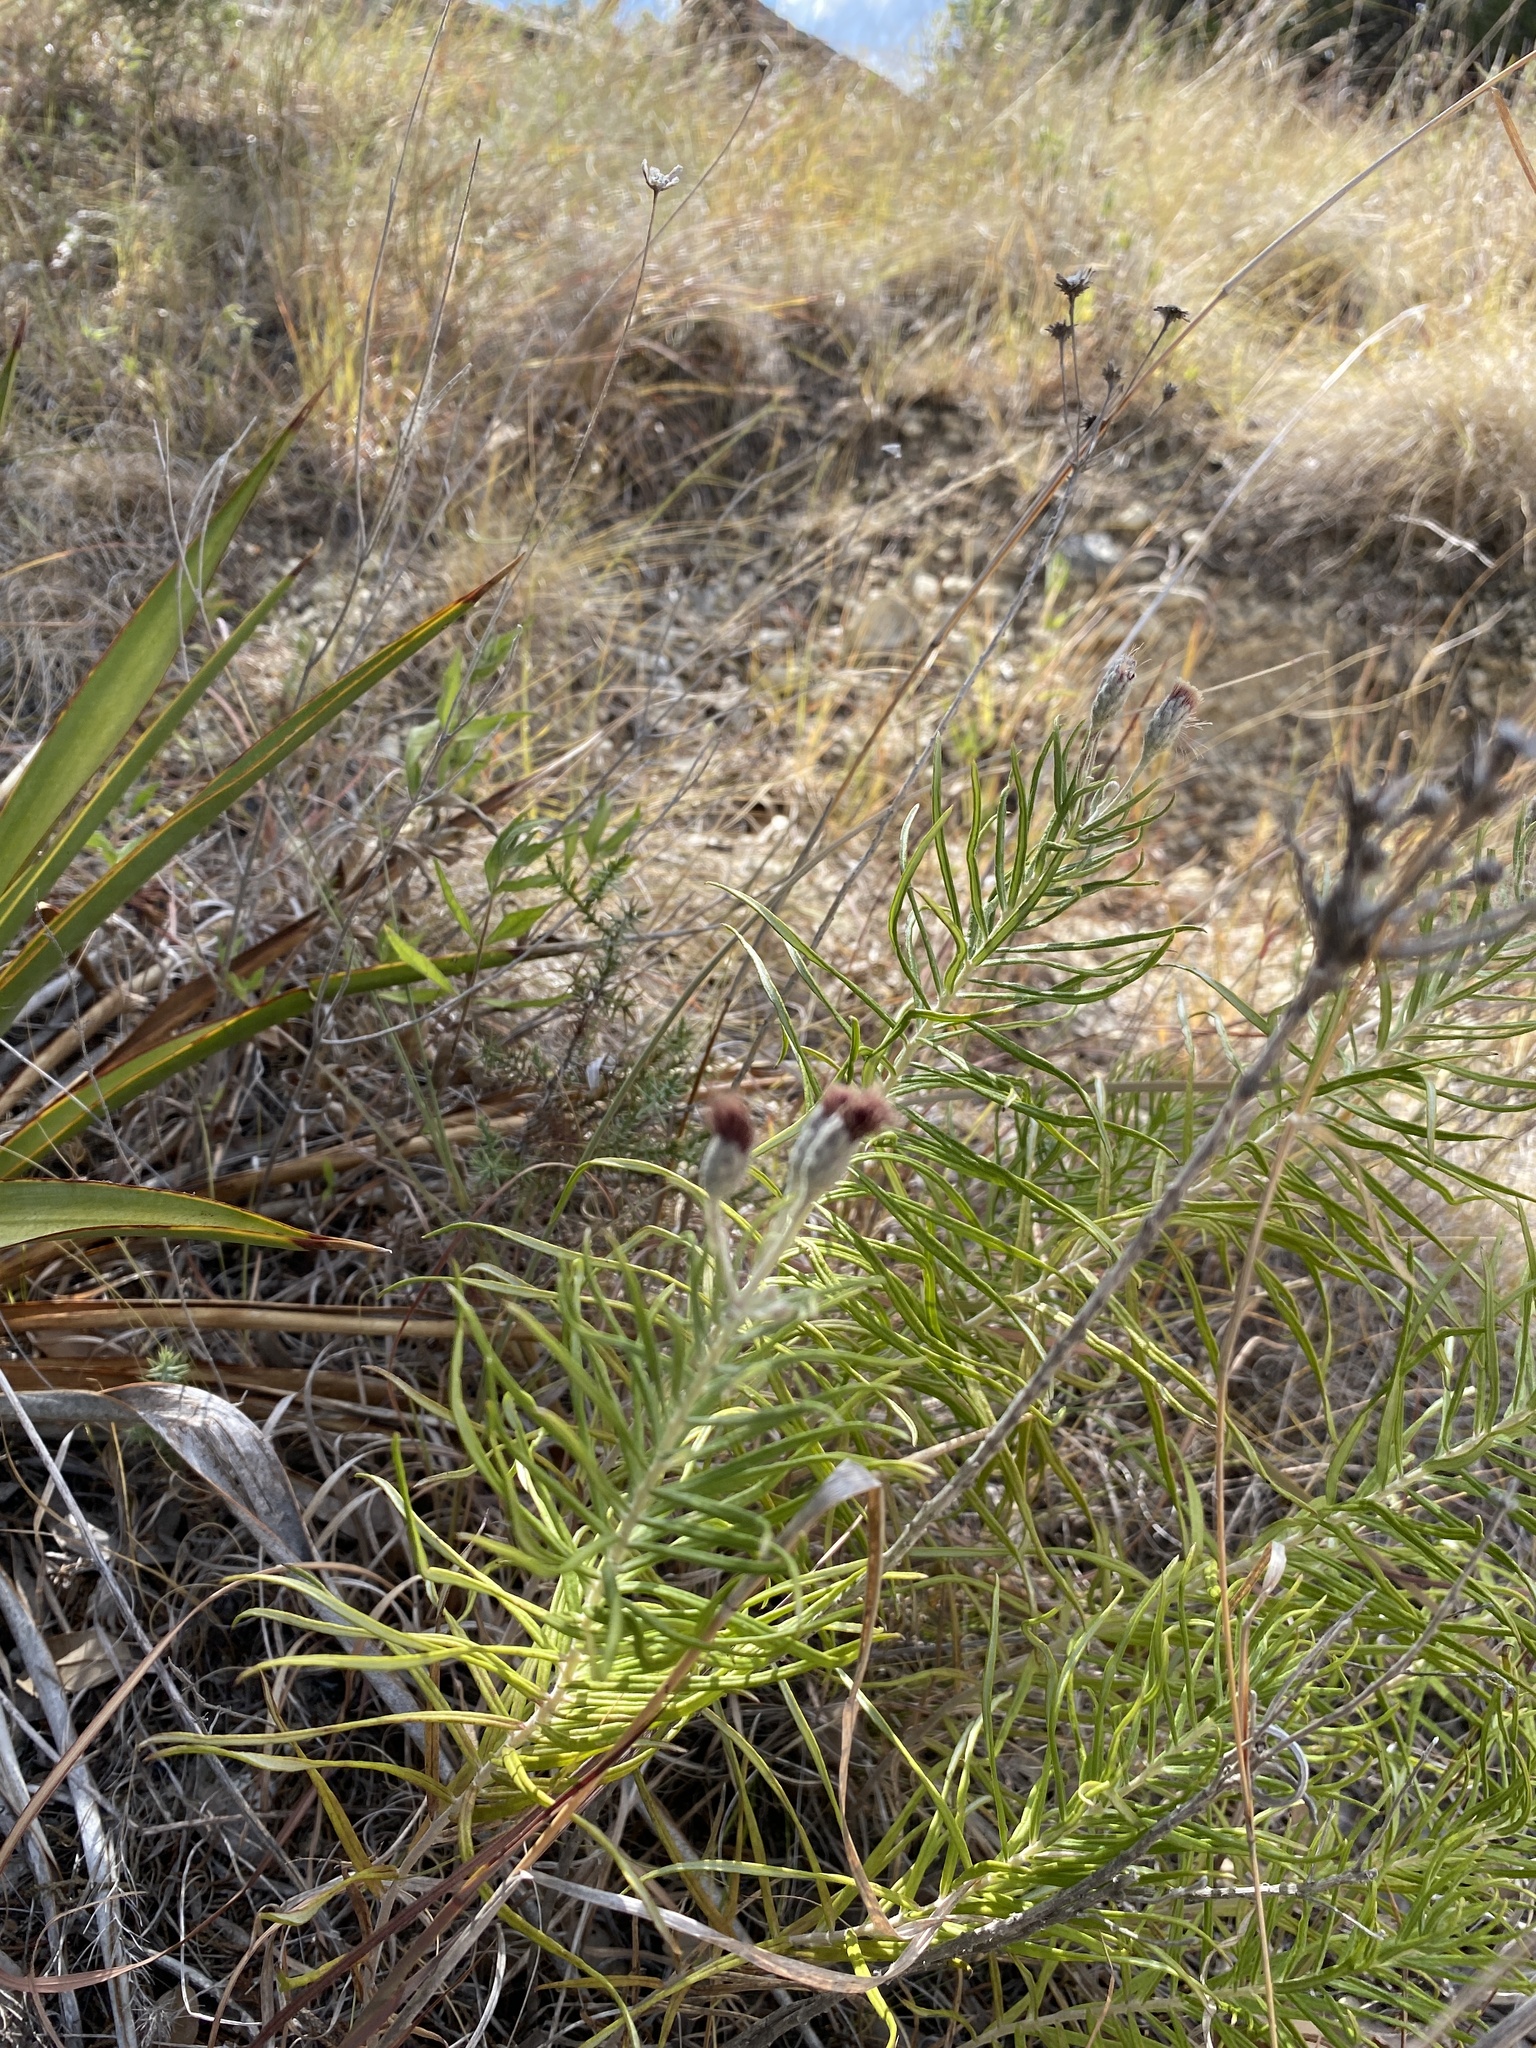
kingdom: Plantae
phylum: Tracheophyta
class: Magnoliopsida
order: Asterales
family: Asteraceae
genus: Vernonia
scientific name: Vernonia lindheimeri
